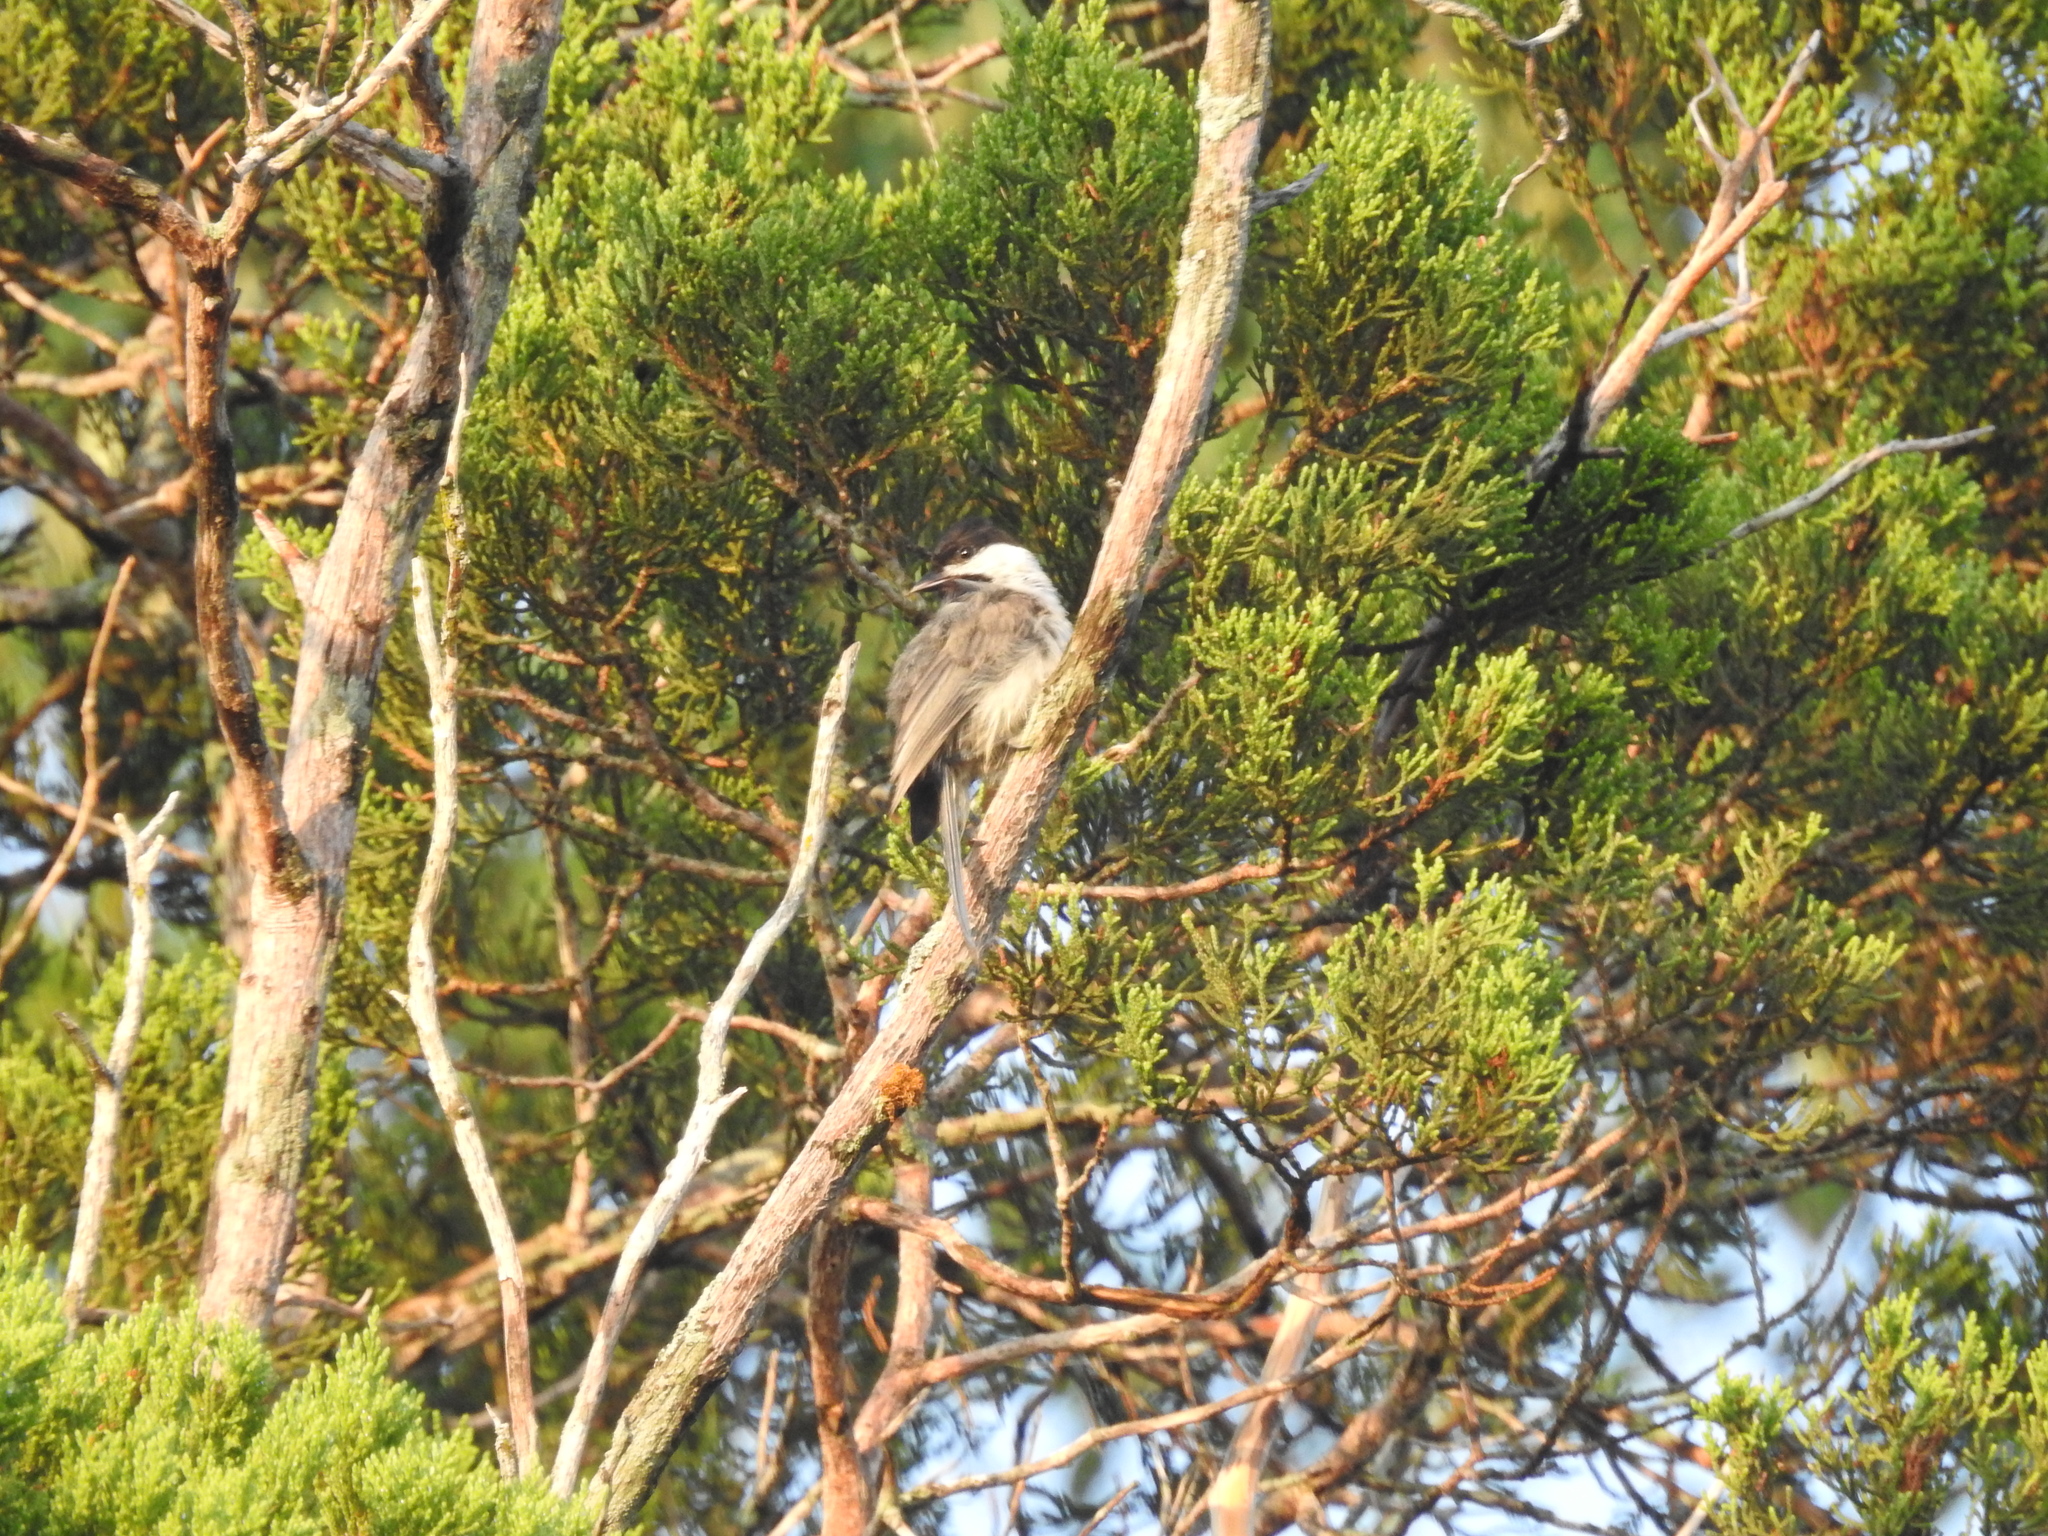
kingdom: Animalia
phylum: Chordata
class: Aves
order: Passeriformes
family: Paridae
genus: Poecile
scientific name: Poecile carolinensis
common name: Carolina chickadee
